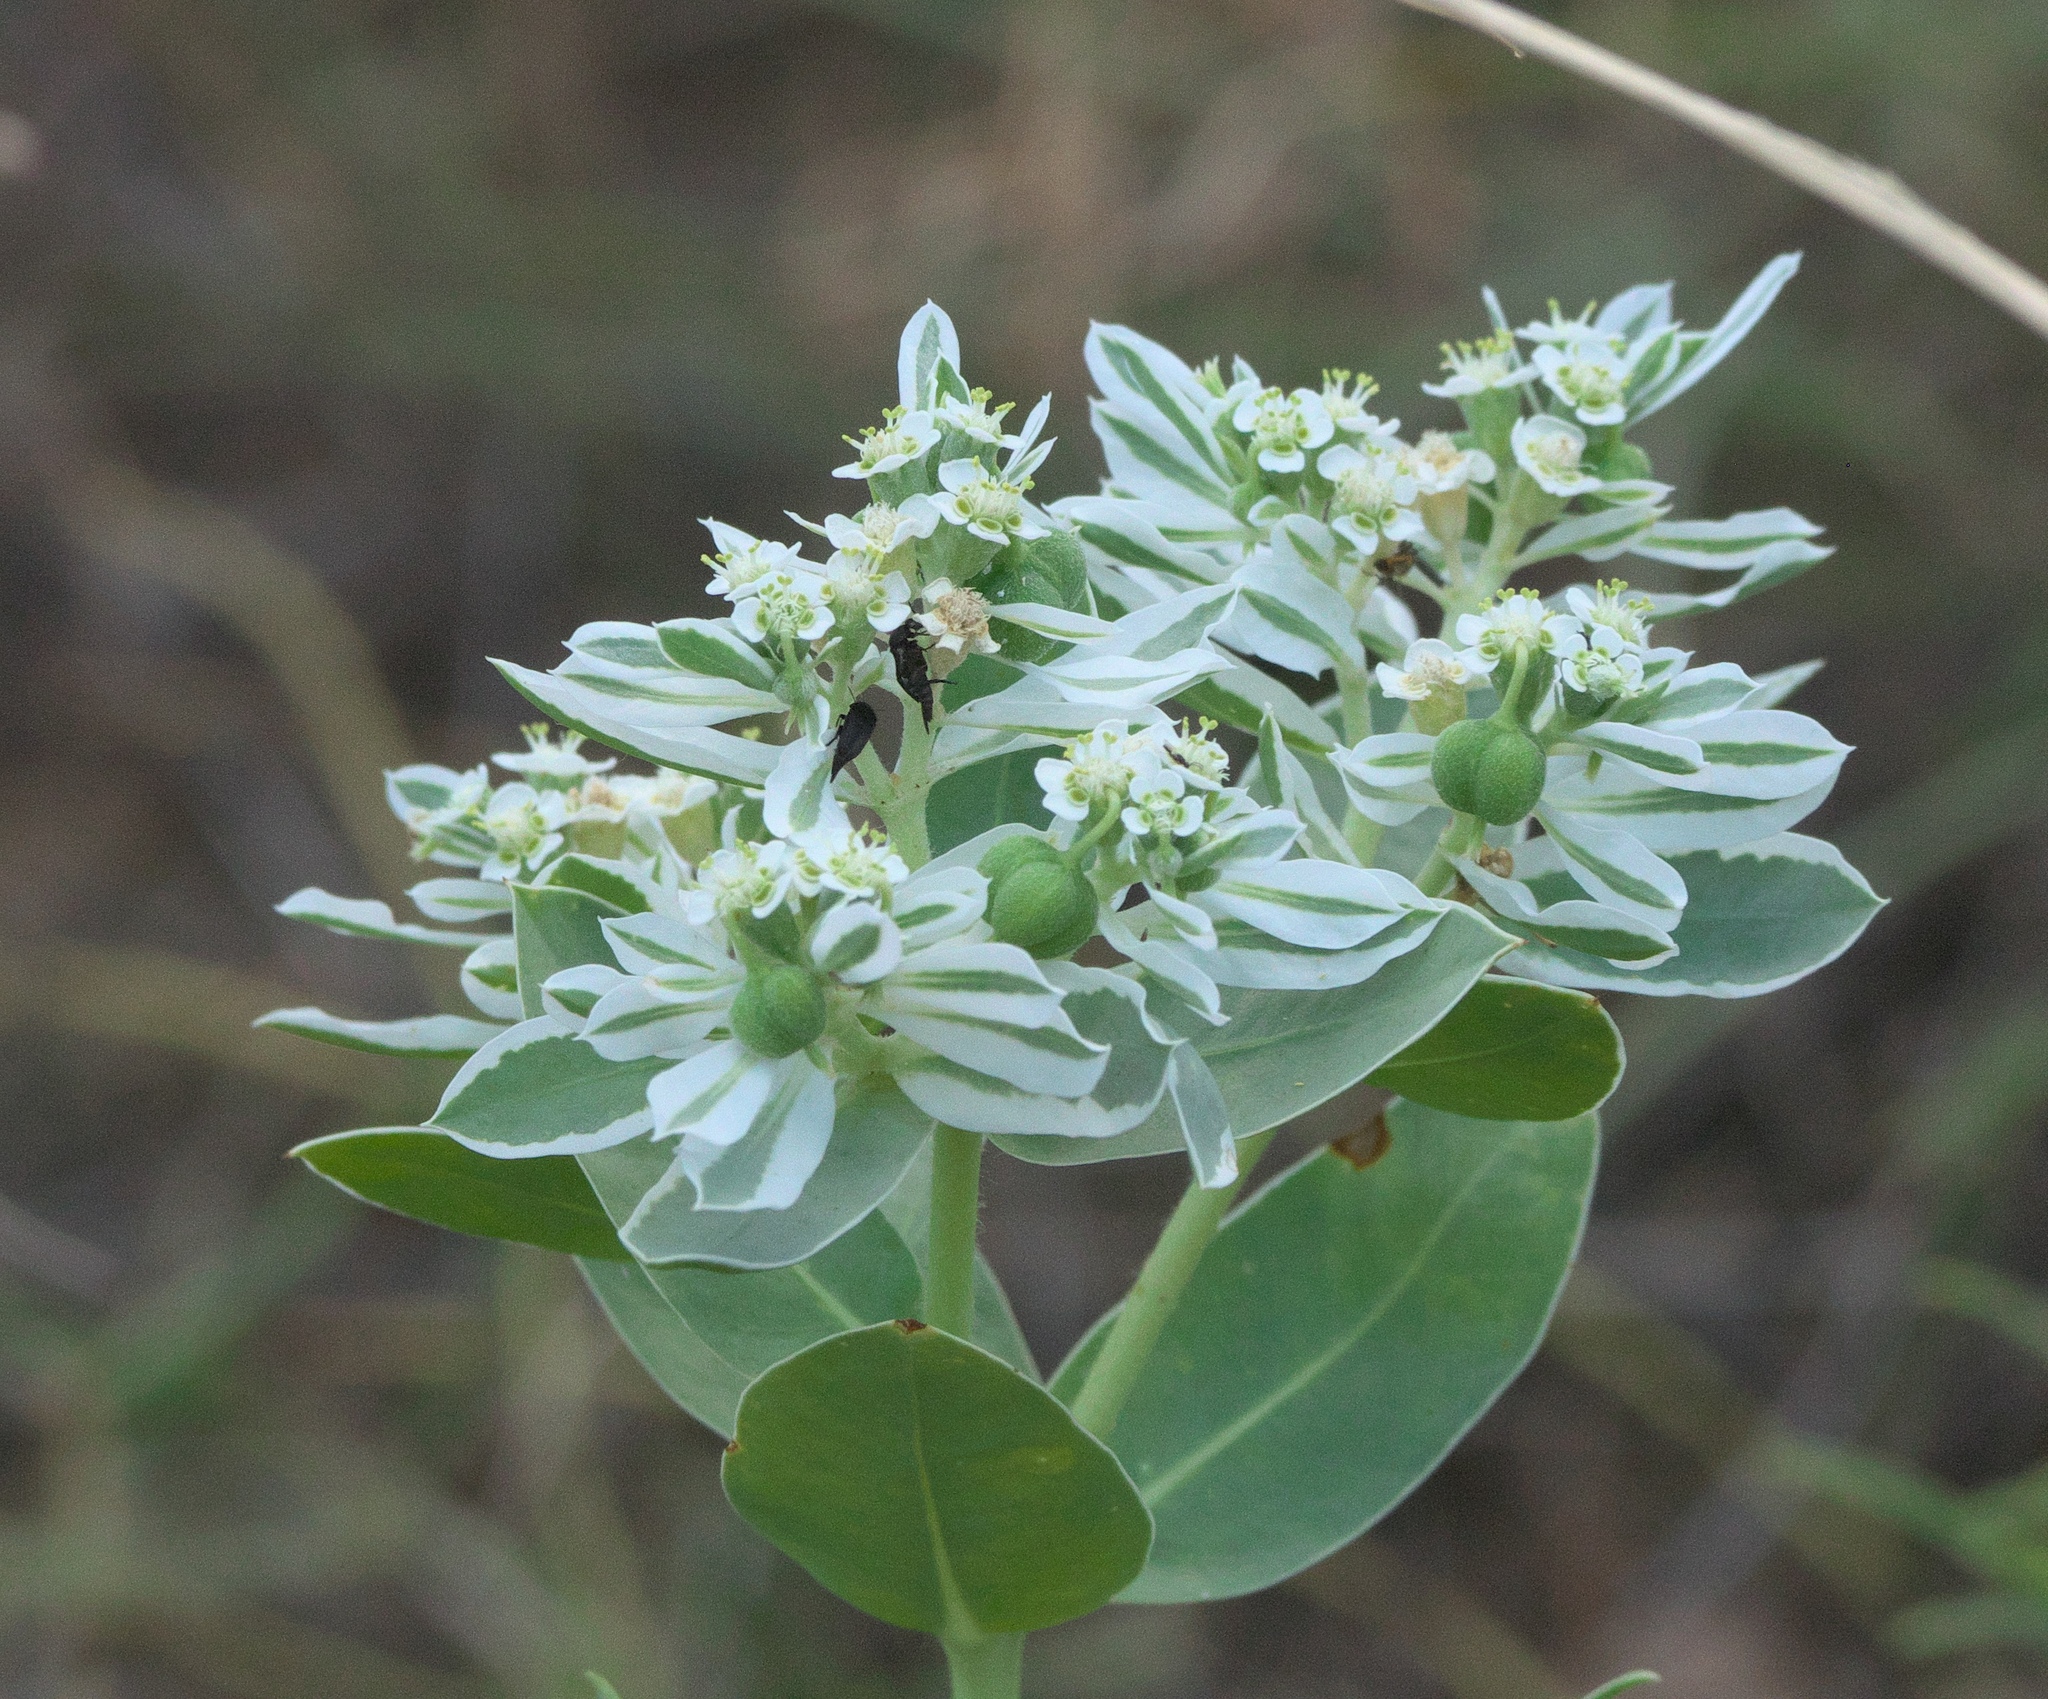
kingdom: Plantae
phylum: Tracheophyta
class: Magnoliopsida
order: Malpighiales
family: Euphorbiaceae
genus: Euphorbia
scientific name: Euphorbia marginata
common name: Ghostweed
